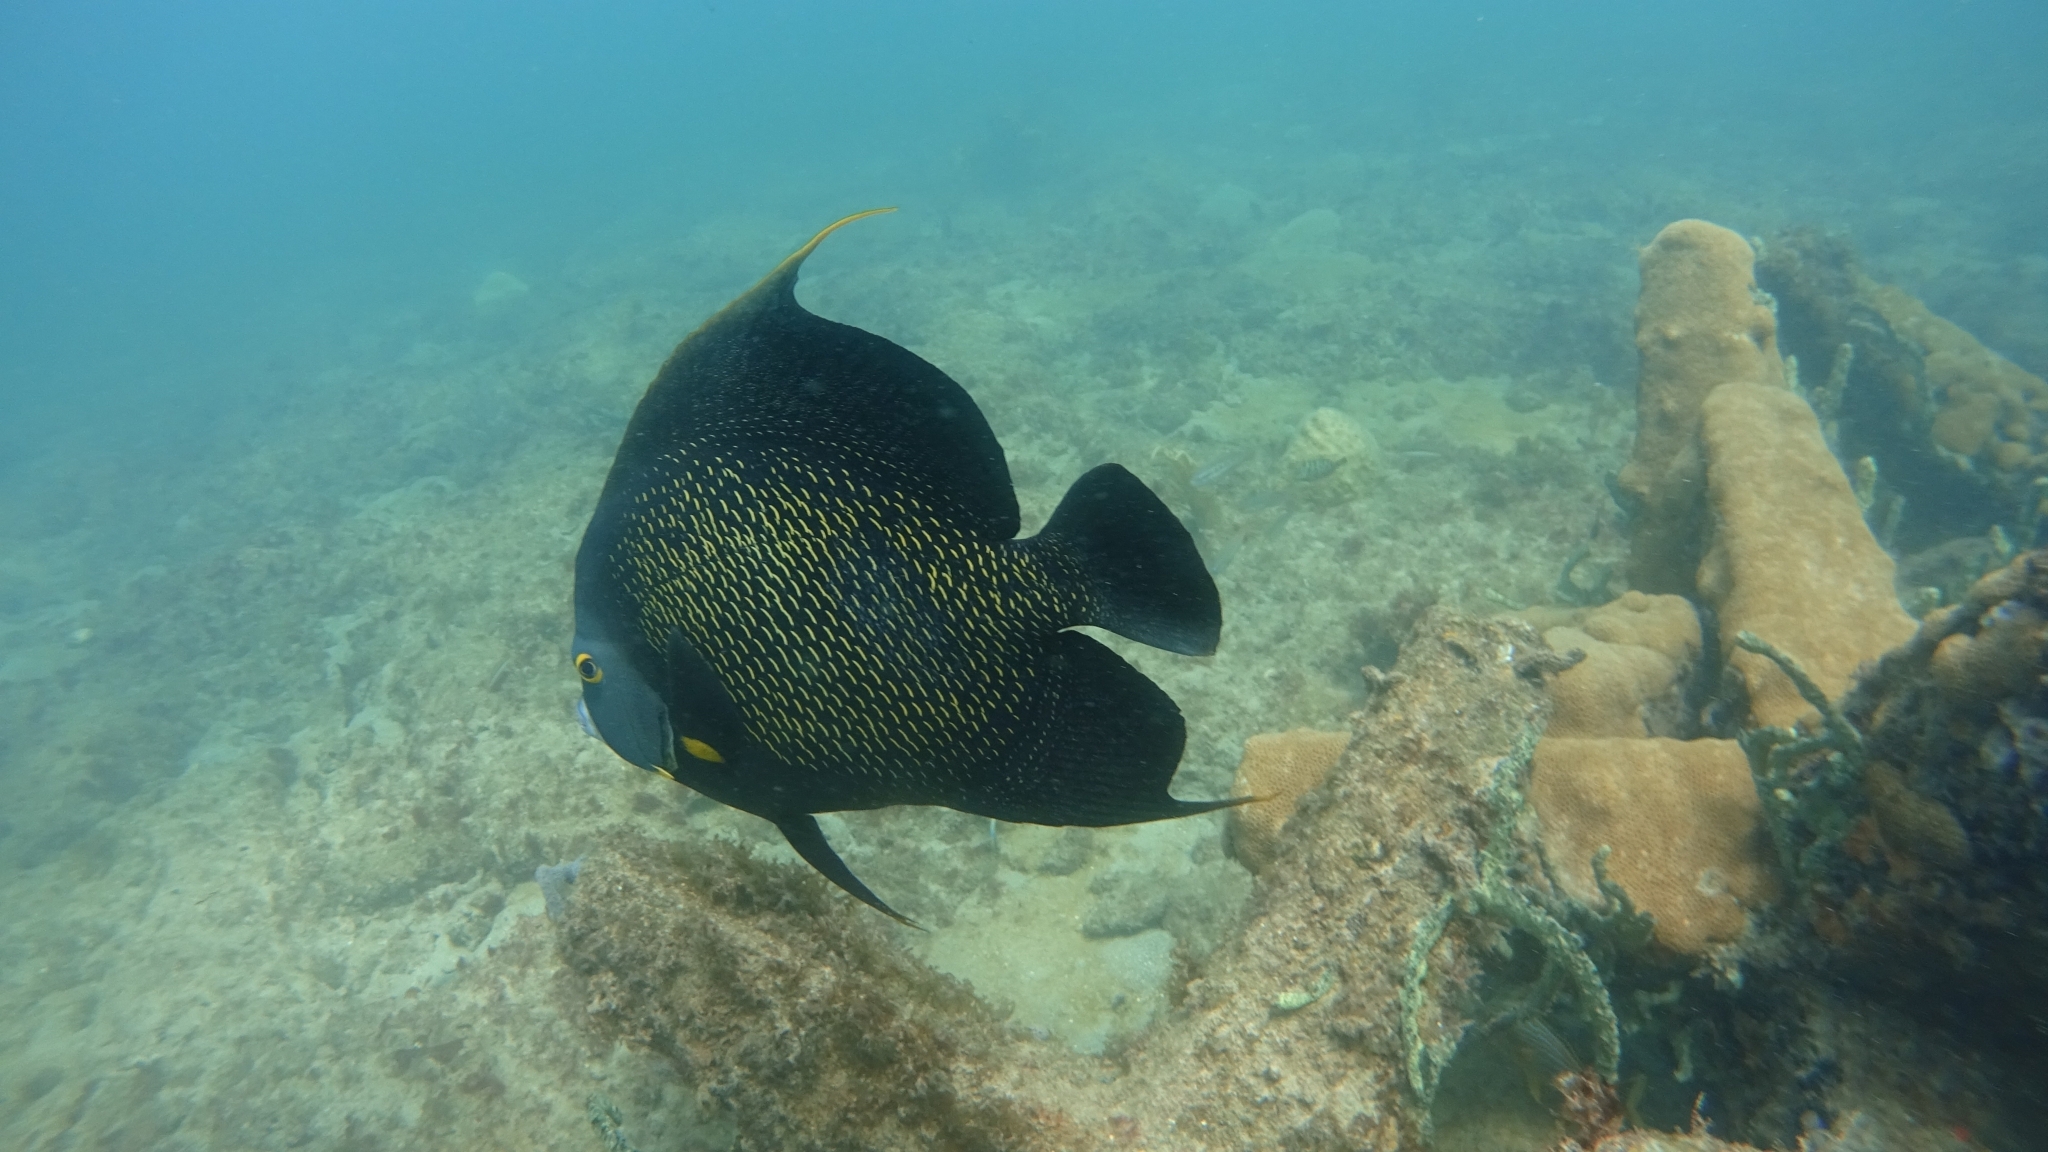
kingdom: Animalia
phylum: Chordata
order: Perciformes
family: Pomacanthidae
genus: Pomacanthus
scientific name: Pomacanthus paru
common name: French angelfish
